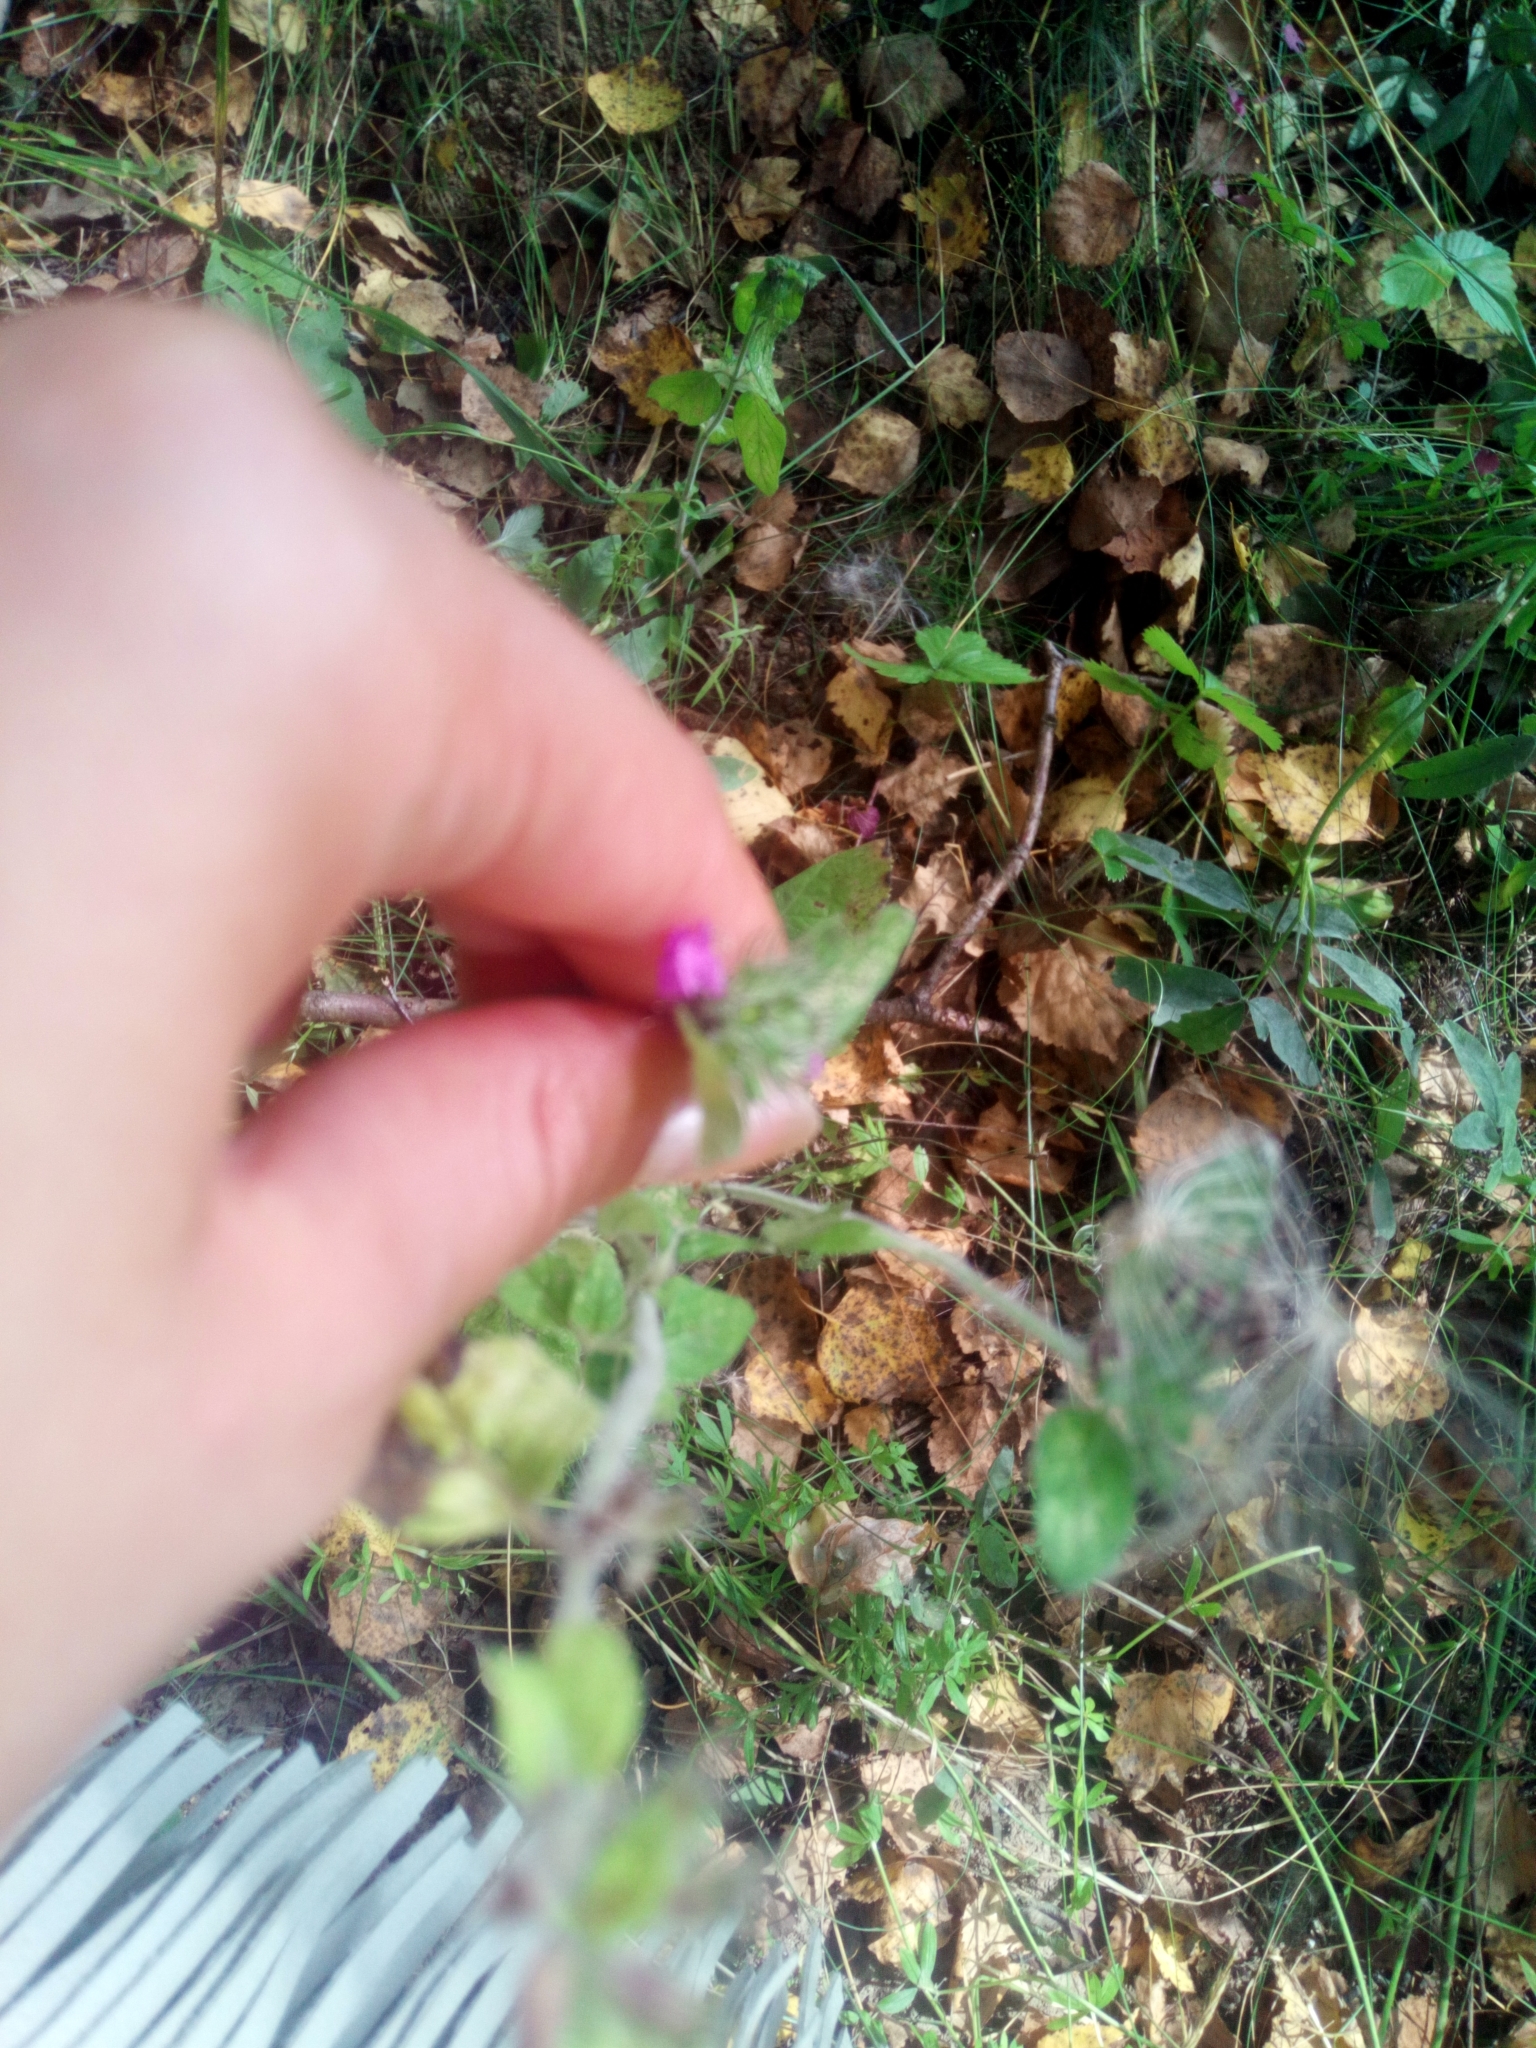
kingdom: Plantae
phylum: Tracheophyta
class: Magnoliopsida
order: Lamiales
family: Lamiaceae
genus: Clinopodium
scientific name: Clinopodium vulgare
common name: Wild basil
